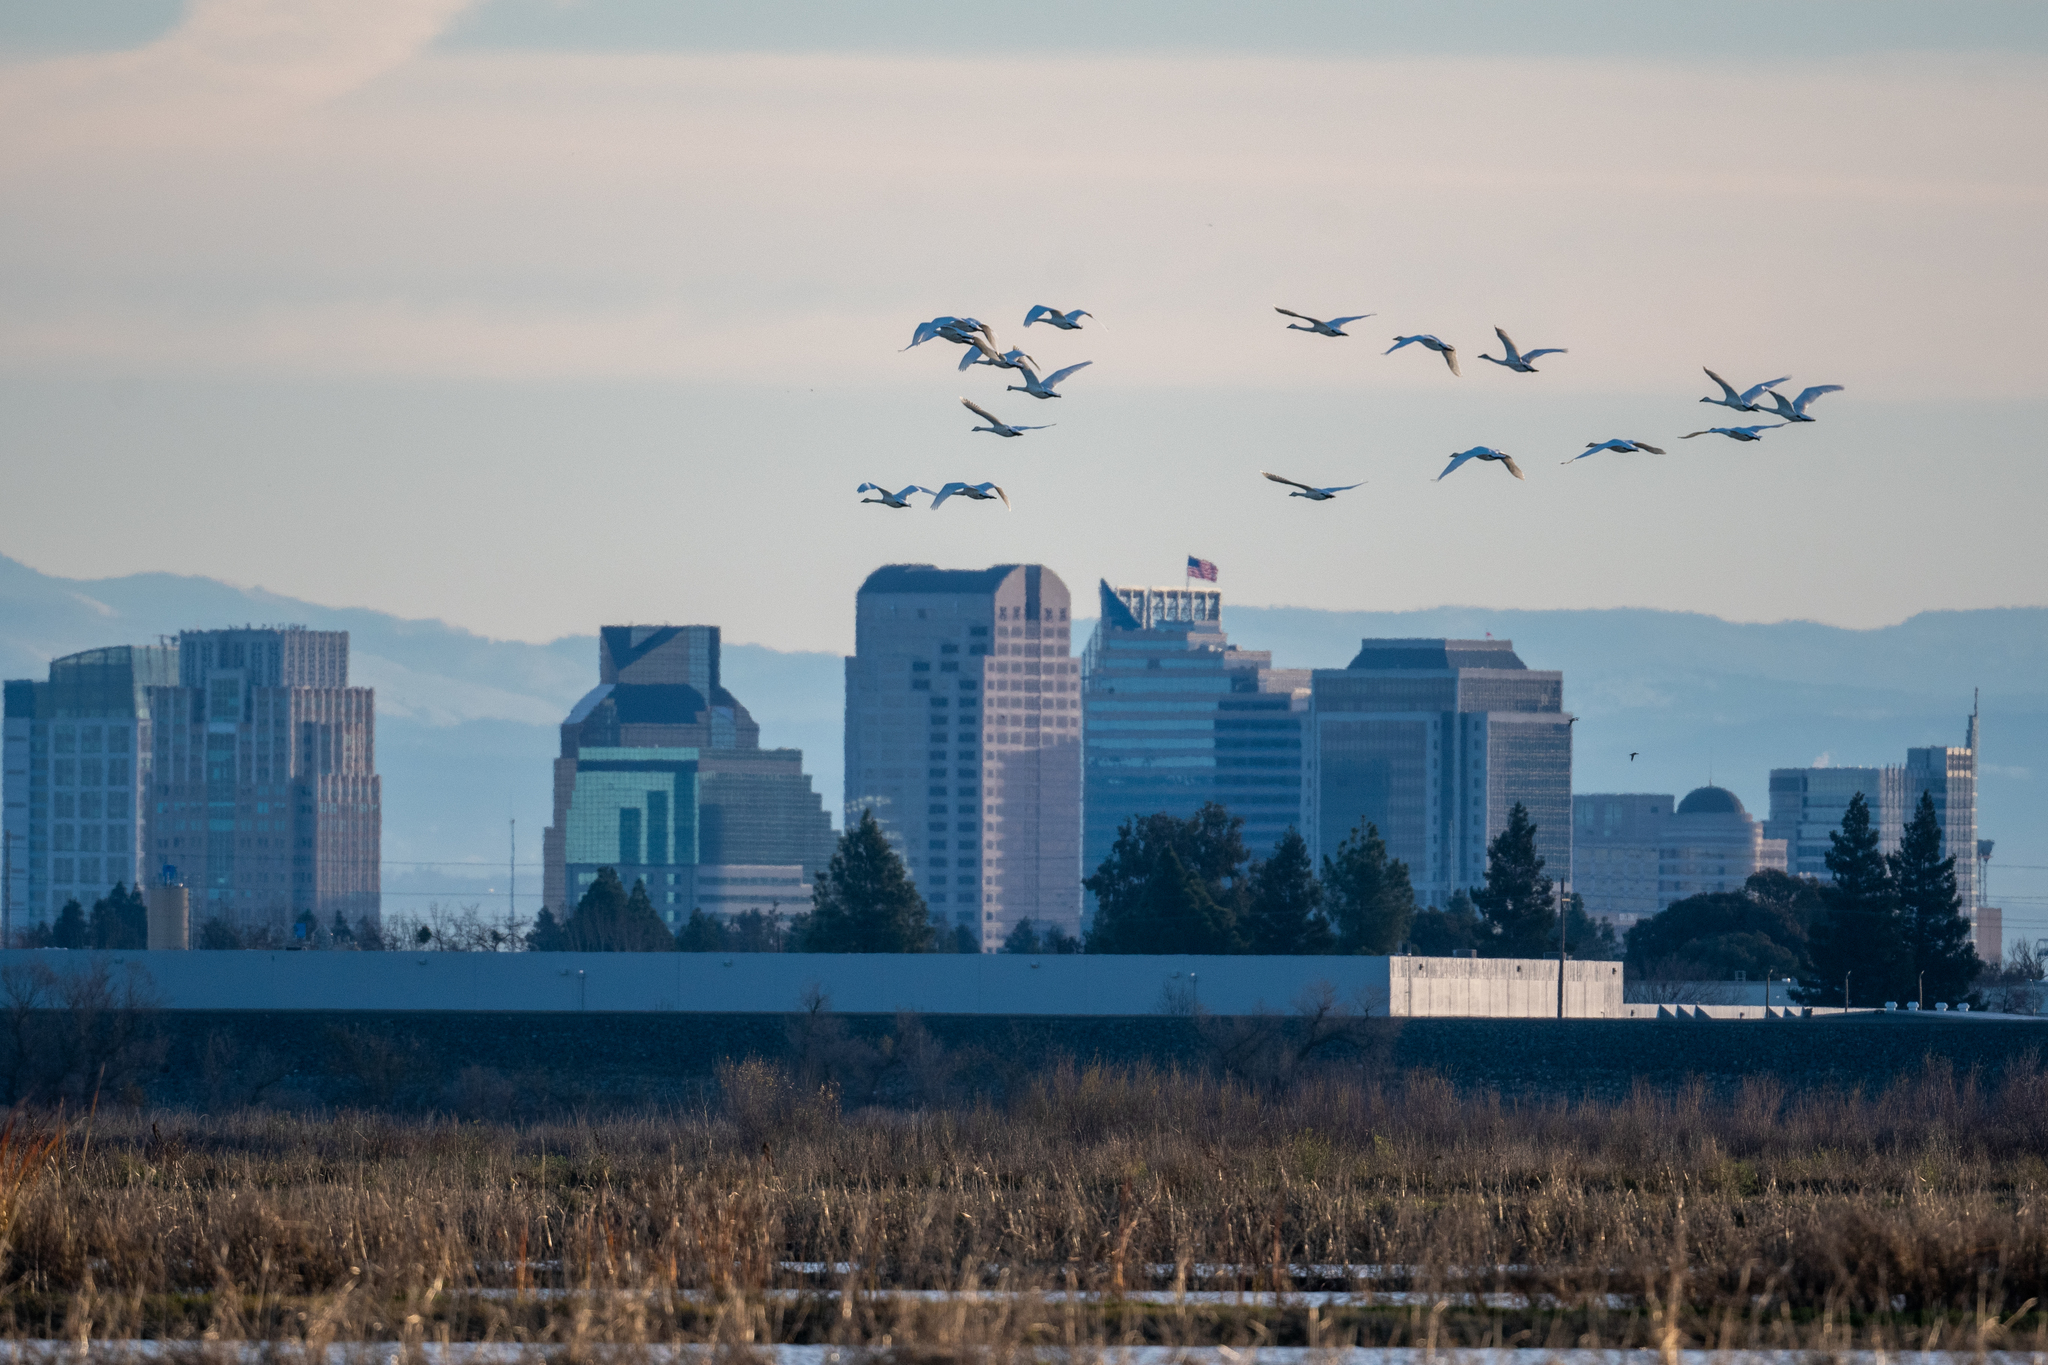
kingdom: Animalia
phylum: Chordata
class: Aves
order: Anseriformes
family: Anatidae
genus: Cygnus
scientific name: Cygnus columbianus
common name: Tundra swan
